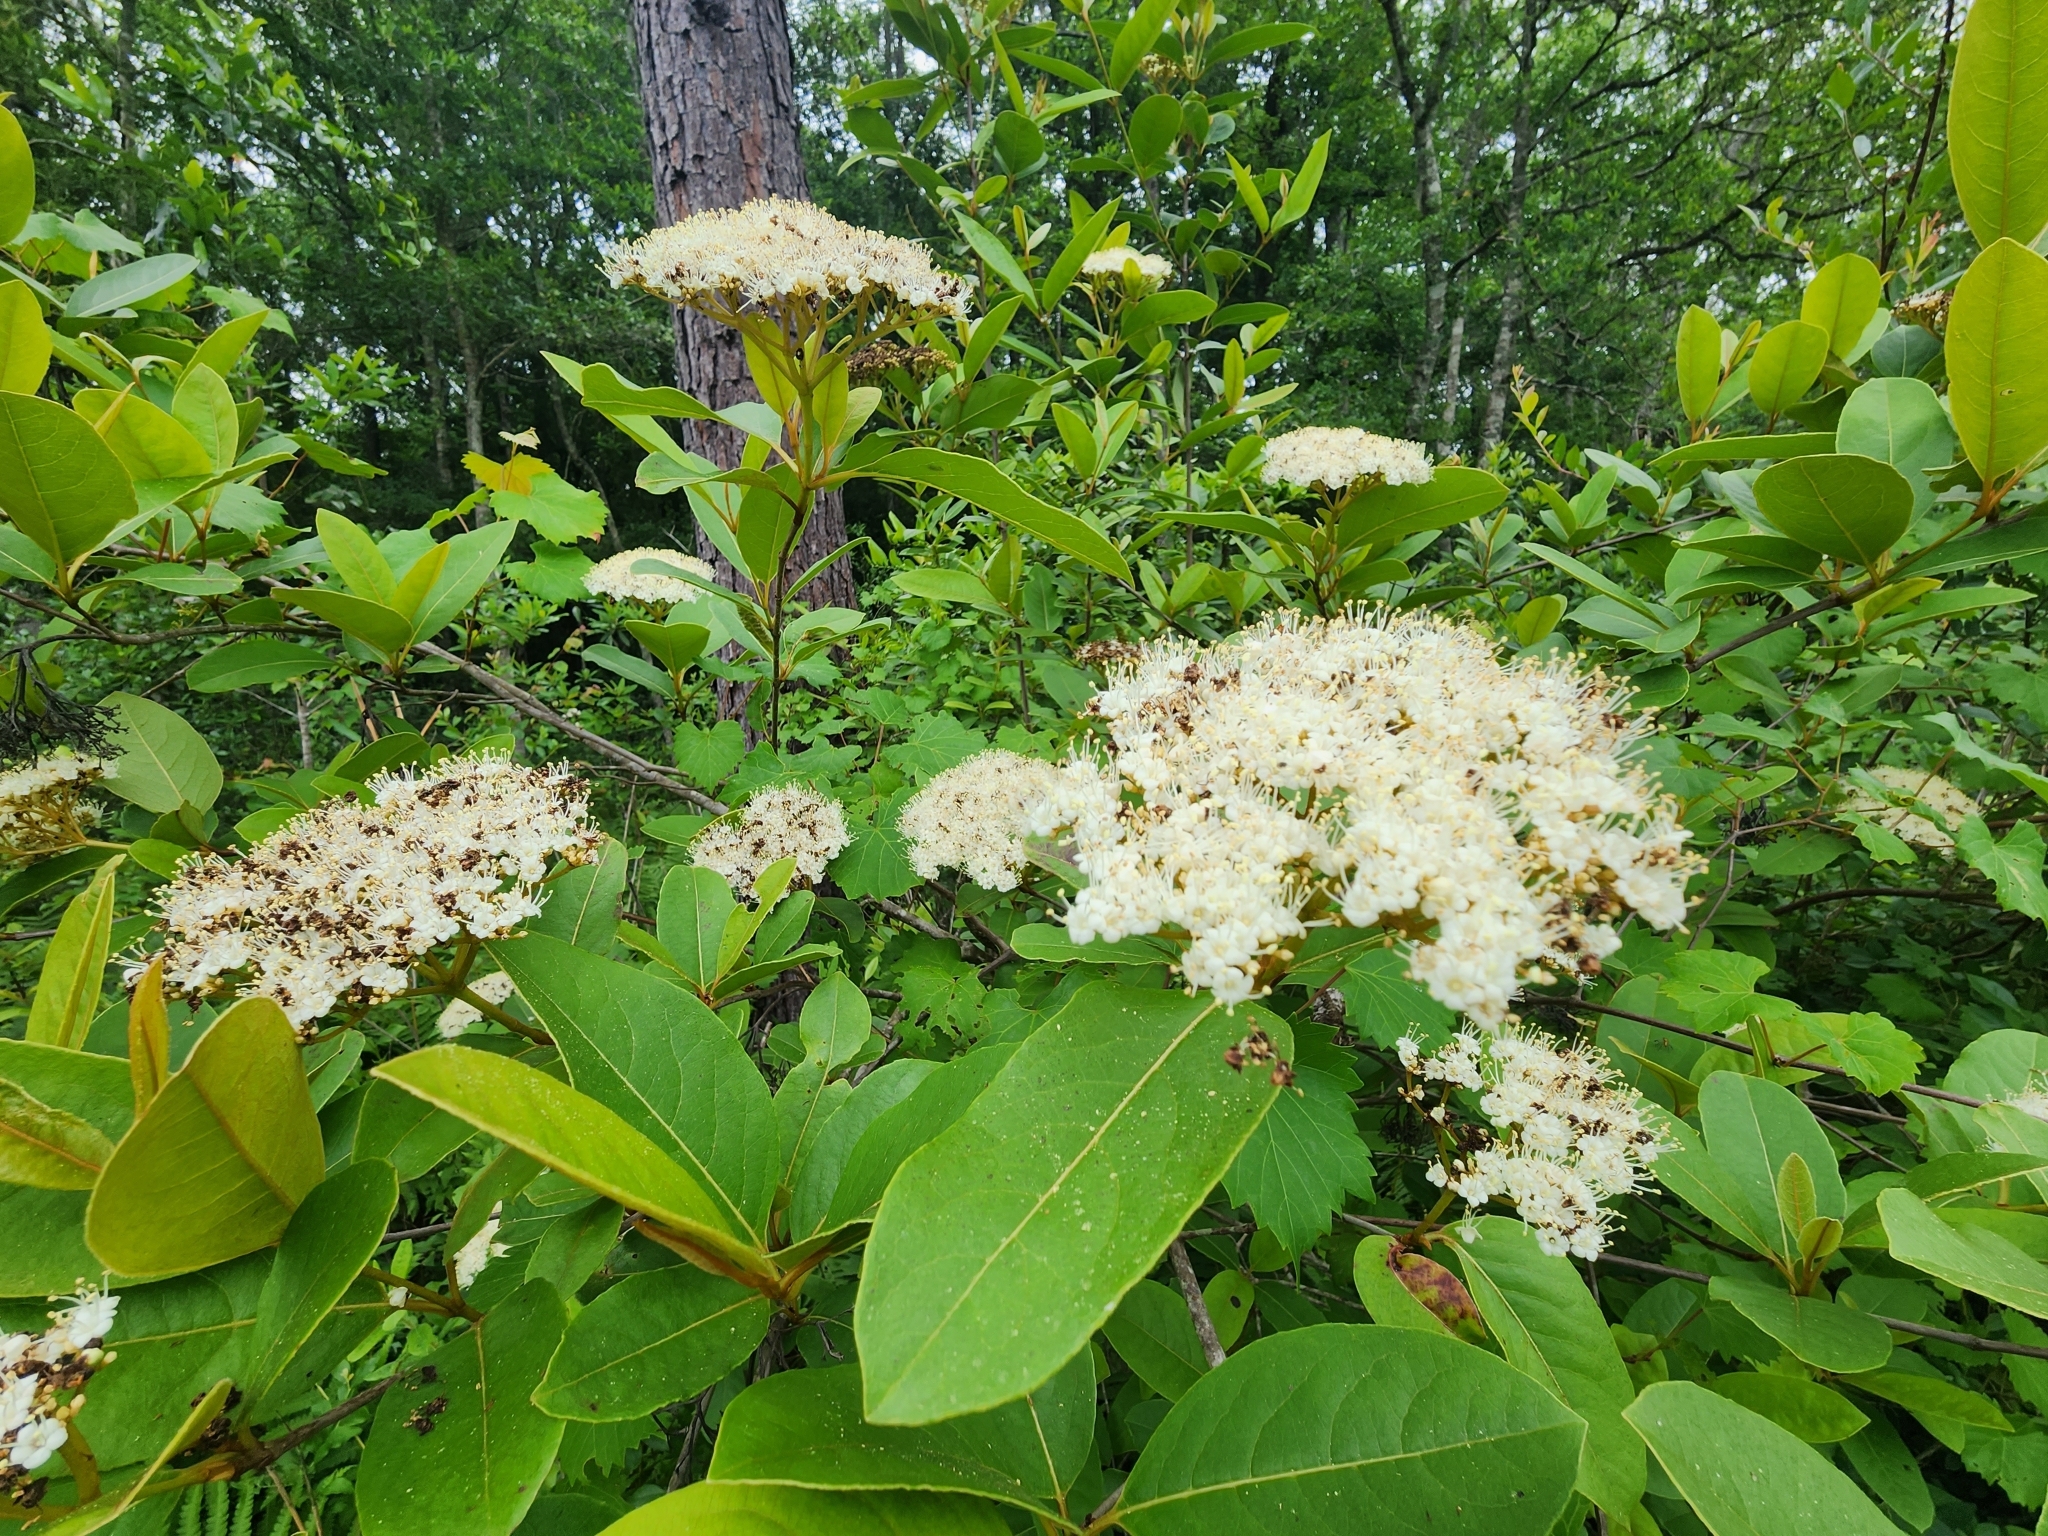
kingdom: Plantae
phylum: Tracheophyta
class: Magnoliopsida
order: Dipsacales
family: Viburnaceae
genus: Viburnum
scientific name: Viburnum nudum
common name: Possum haw
